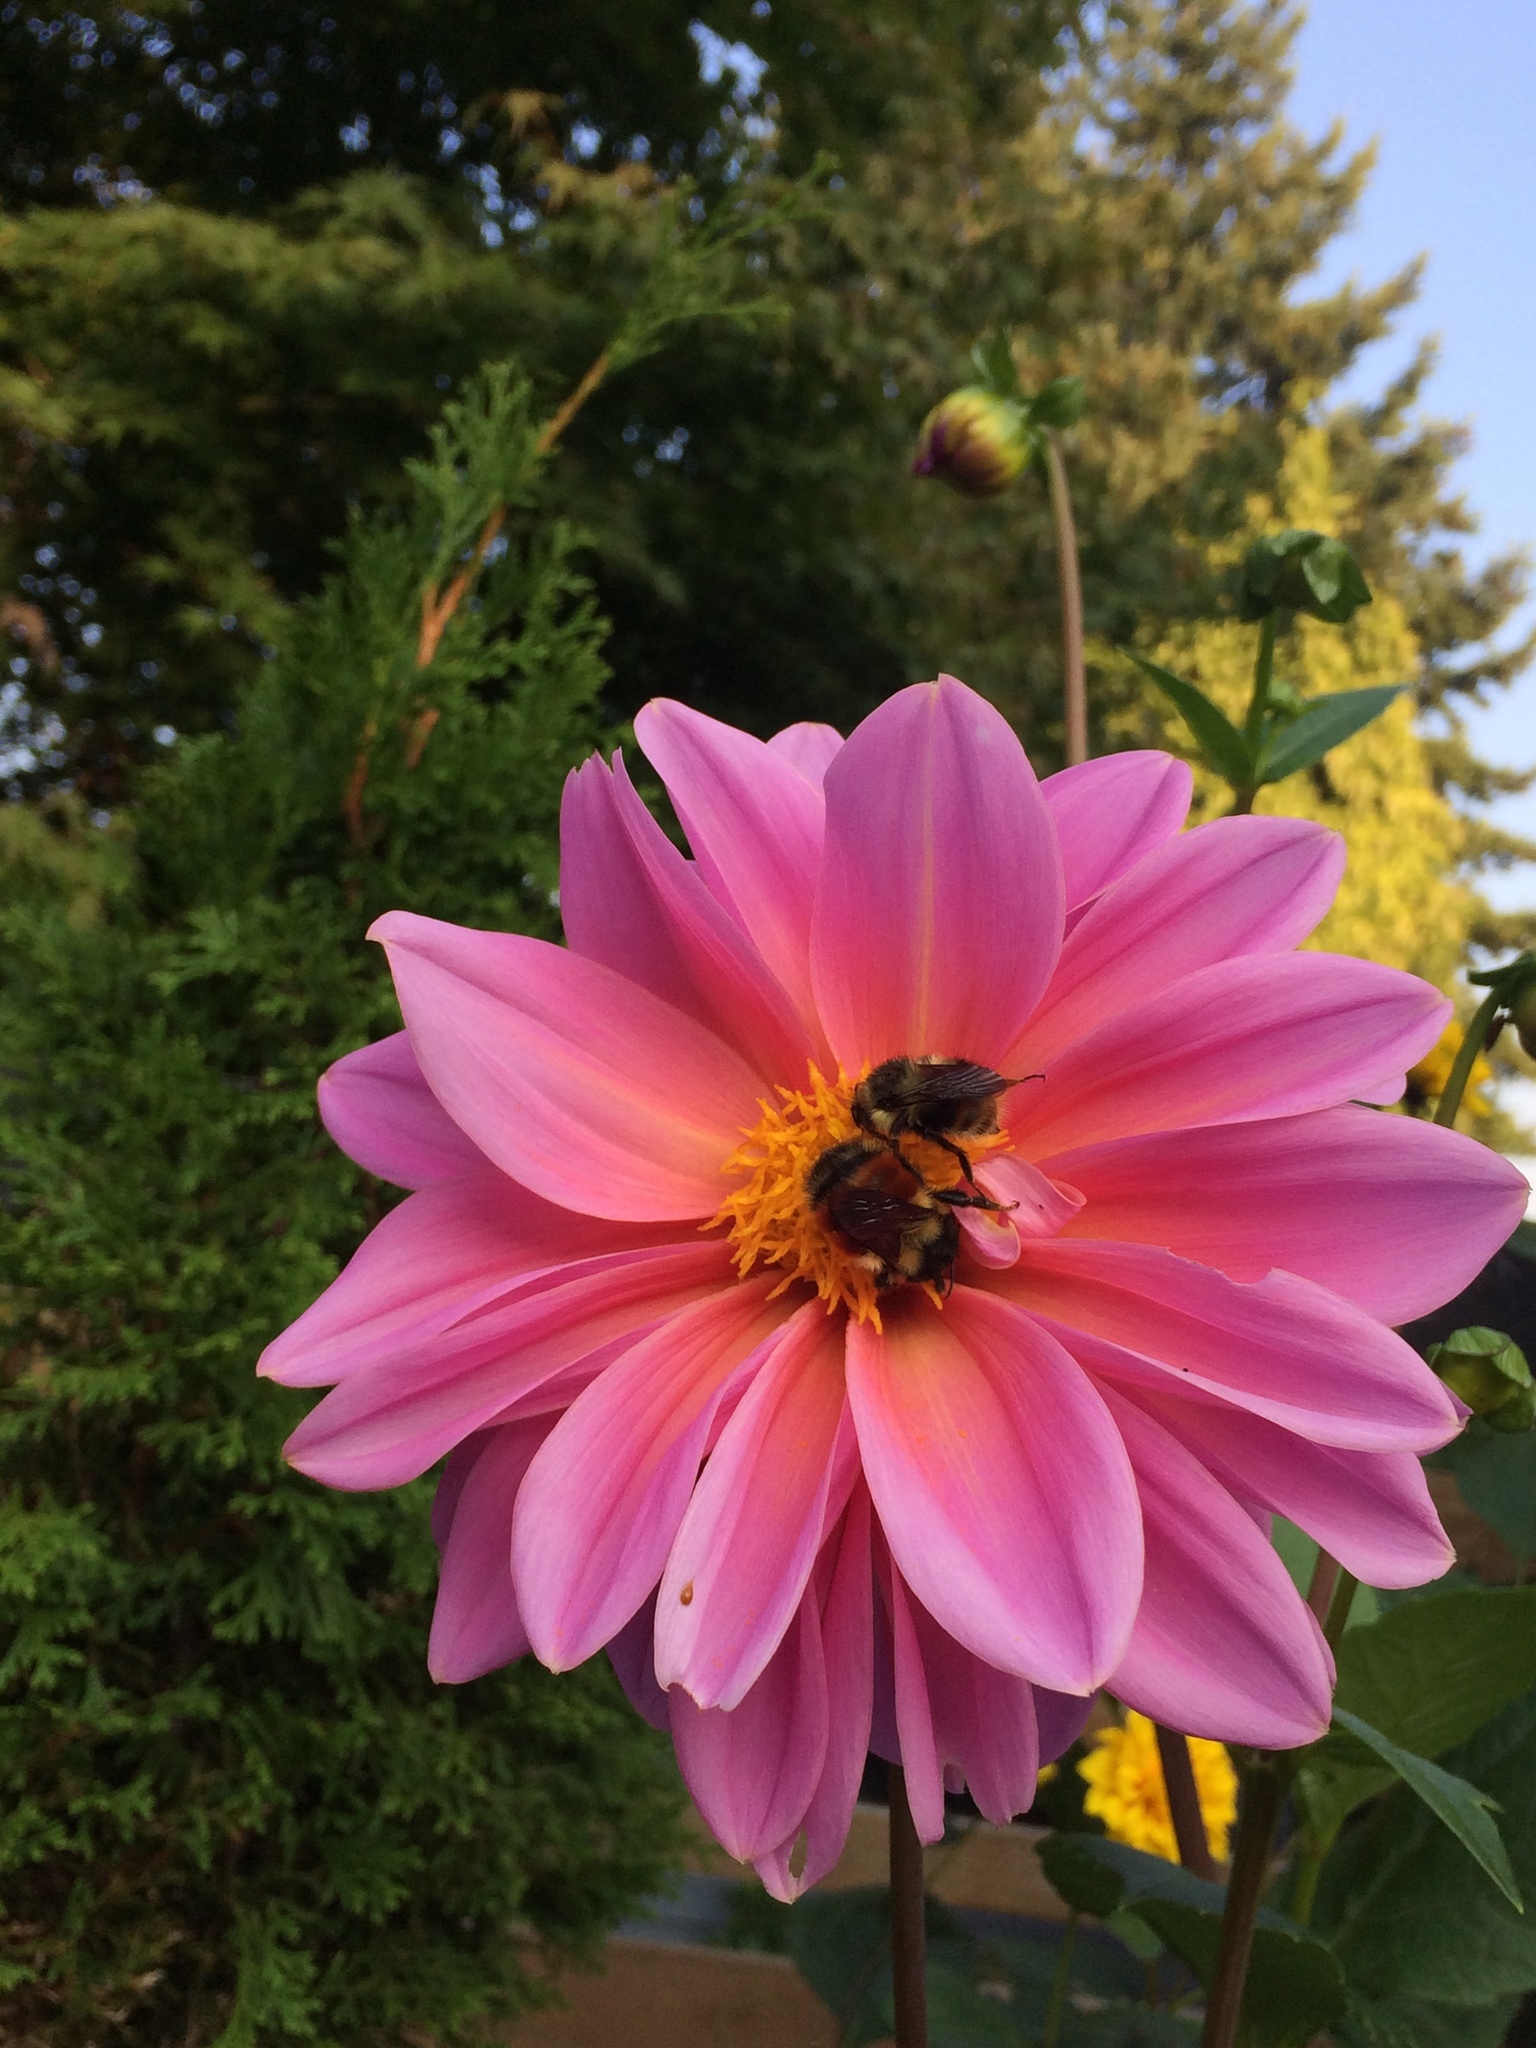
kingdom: Animalia
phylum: Arthropoda
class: Insecta
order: Hymenoptera
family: Apidae
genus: Bombus
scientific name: Bombus melanopygus
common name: Black tail bumble bee
